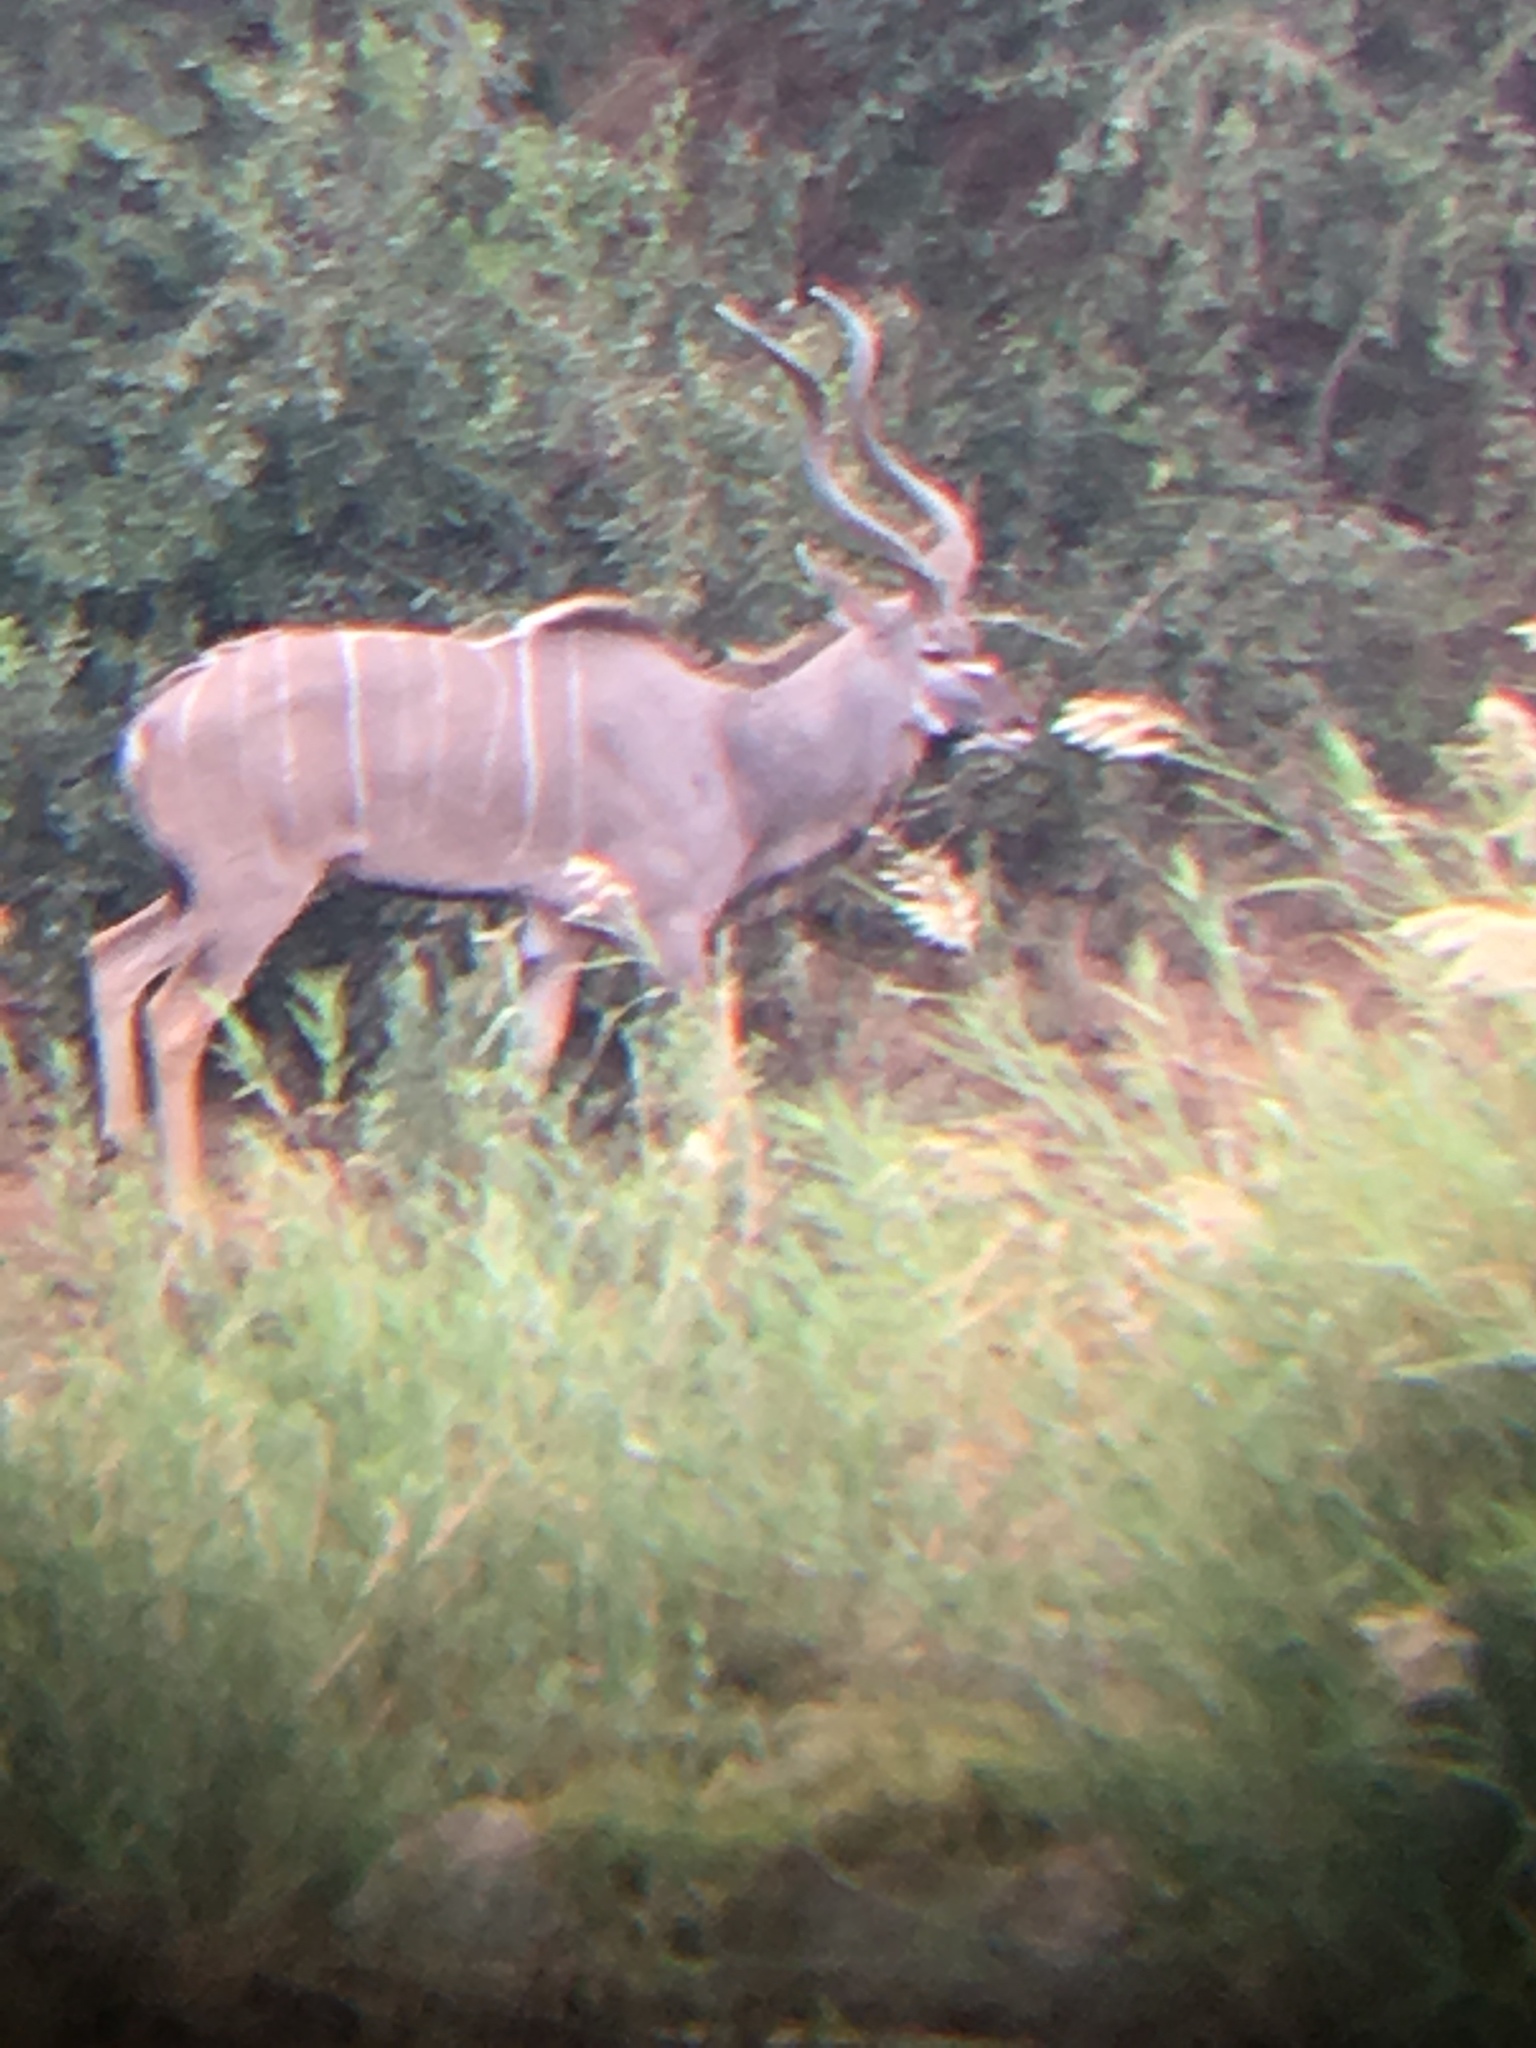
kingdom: Animalia
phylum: Chordata
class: Mammalia
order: Artiodactyla
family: Bovidae
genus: Tragelaphus
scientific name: Tragelaphus strepsiceros
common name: Greater kudu
